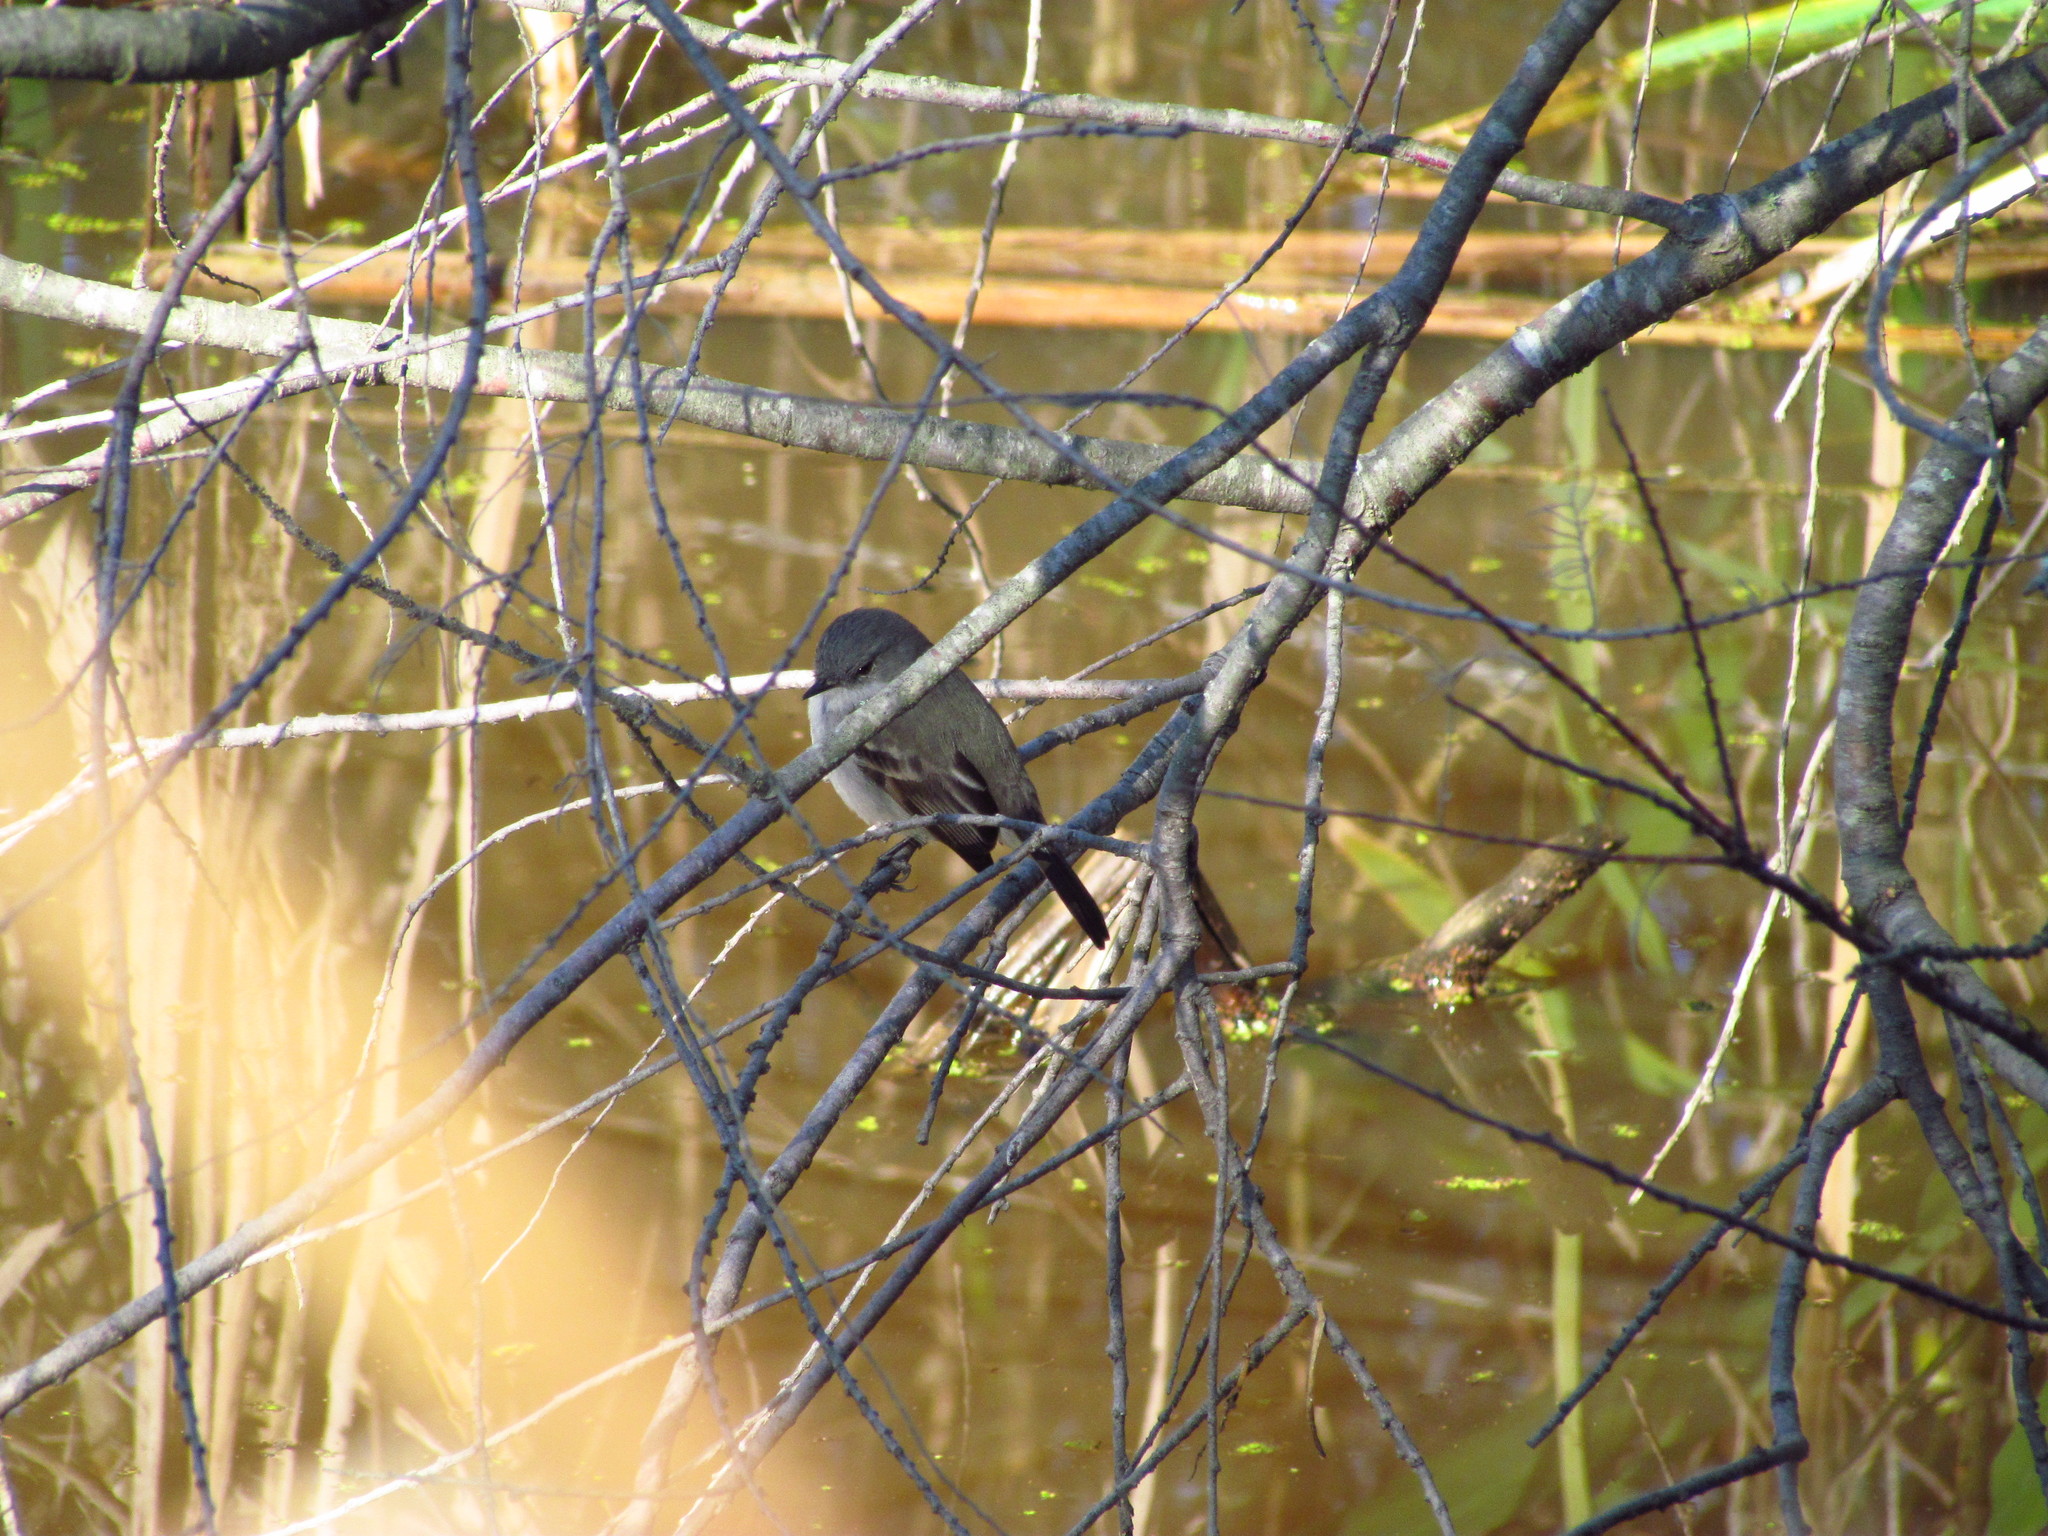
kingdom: Animalia
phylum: Chordata
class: Aves
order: Passeriformes
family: Tyrannidae
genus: Serpophaga
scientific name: Serpophaga nigricans
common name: Sooty tyrannulet
